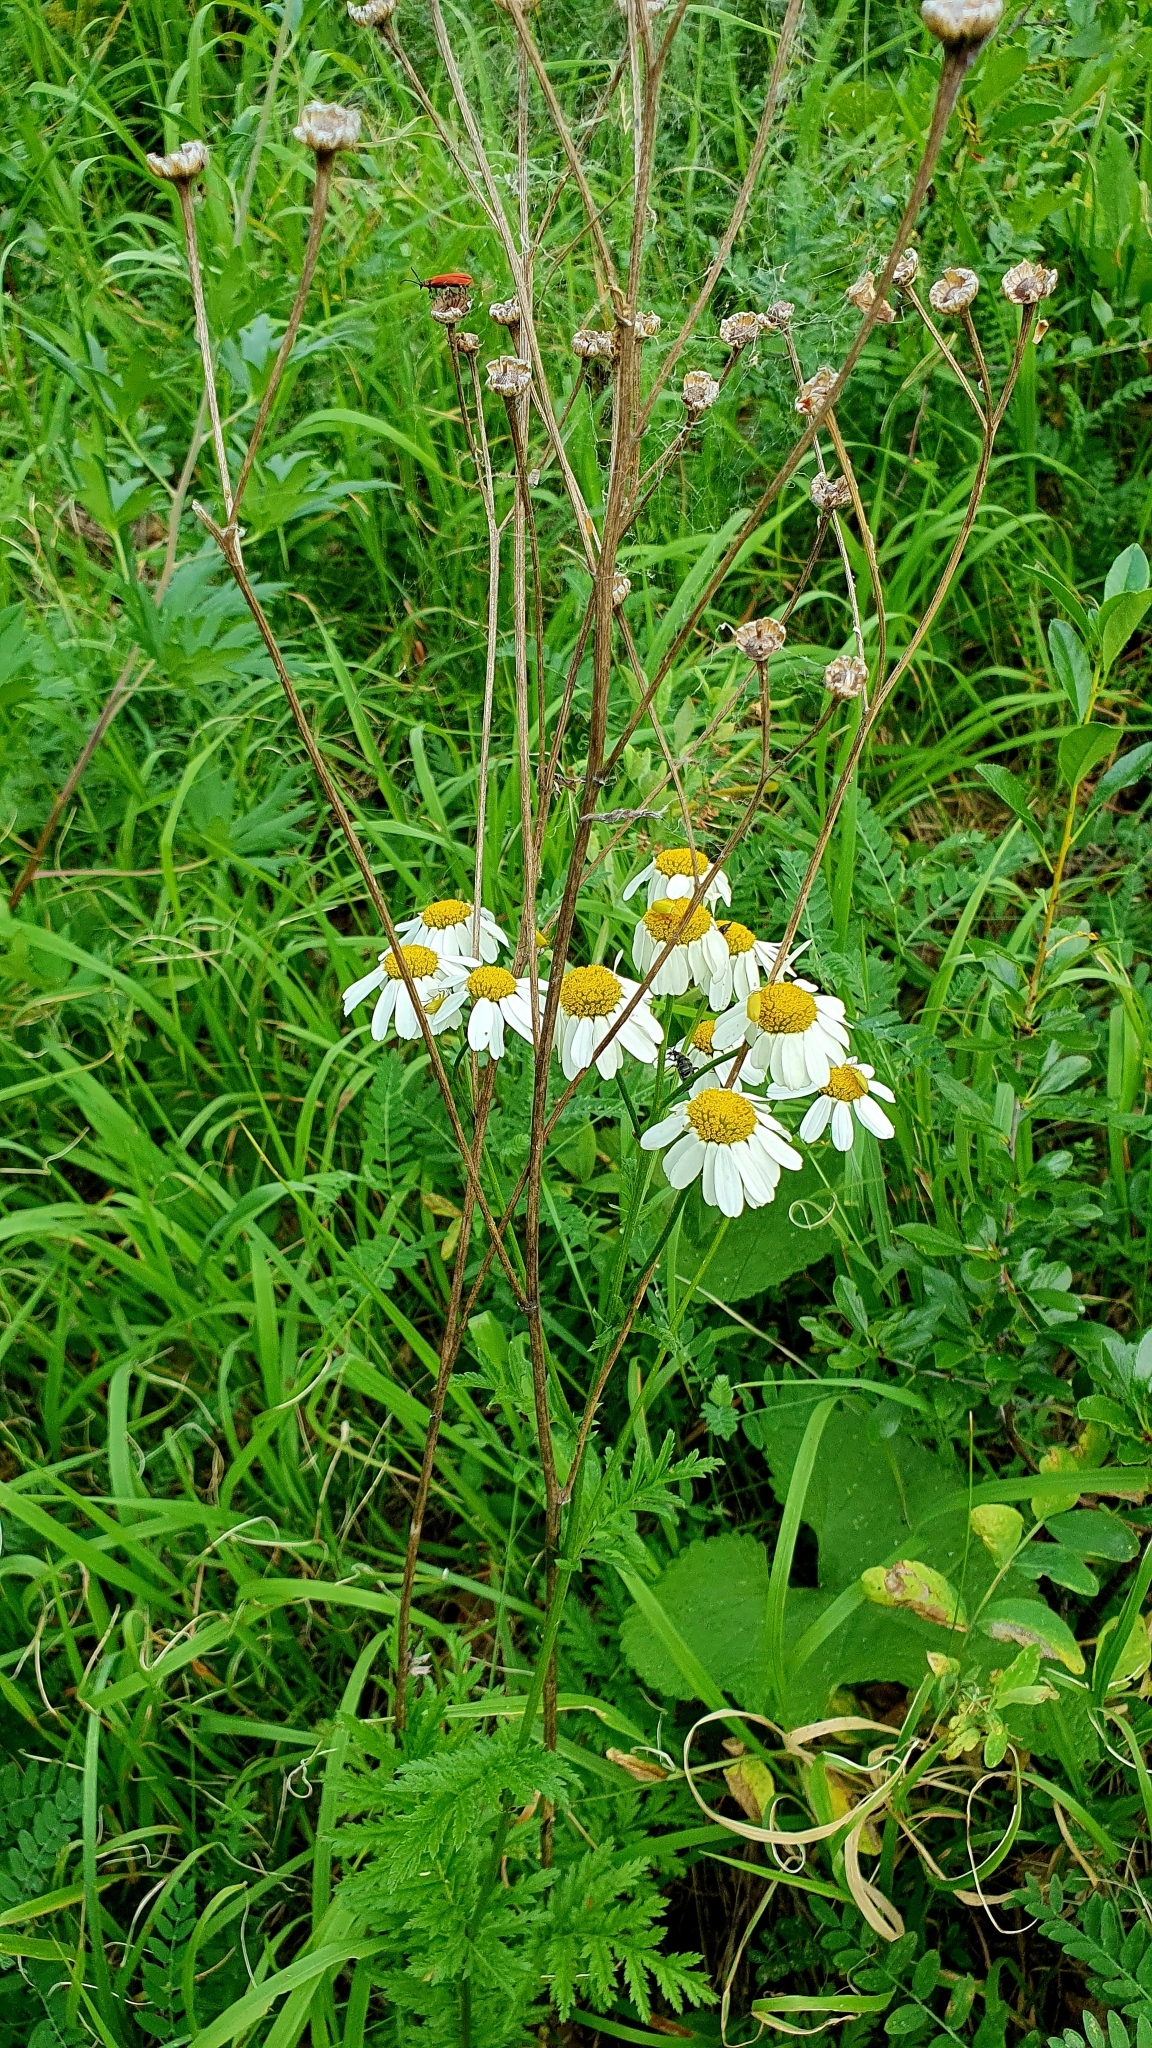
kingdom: Plantae
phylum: Tracheophyta
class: Magnoliopsida
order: Asterales
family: Asteraceae
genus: Tanacetum
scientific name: Tanacetum corymbosum
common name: Scentless feverfew
